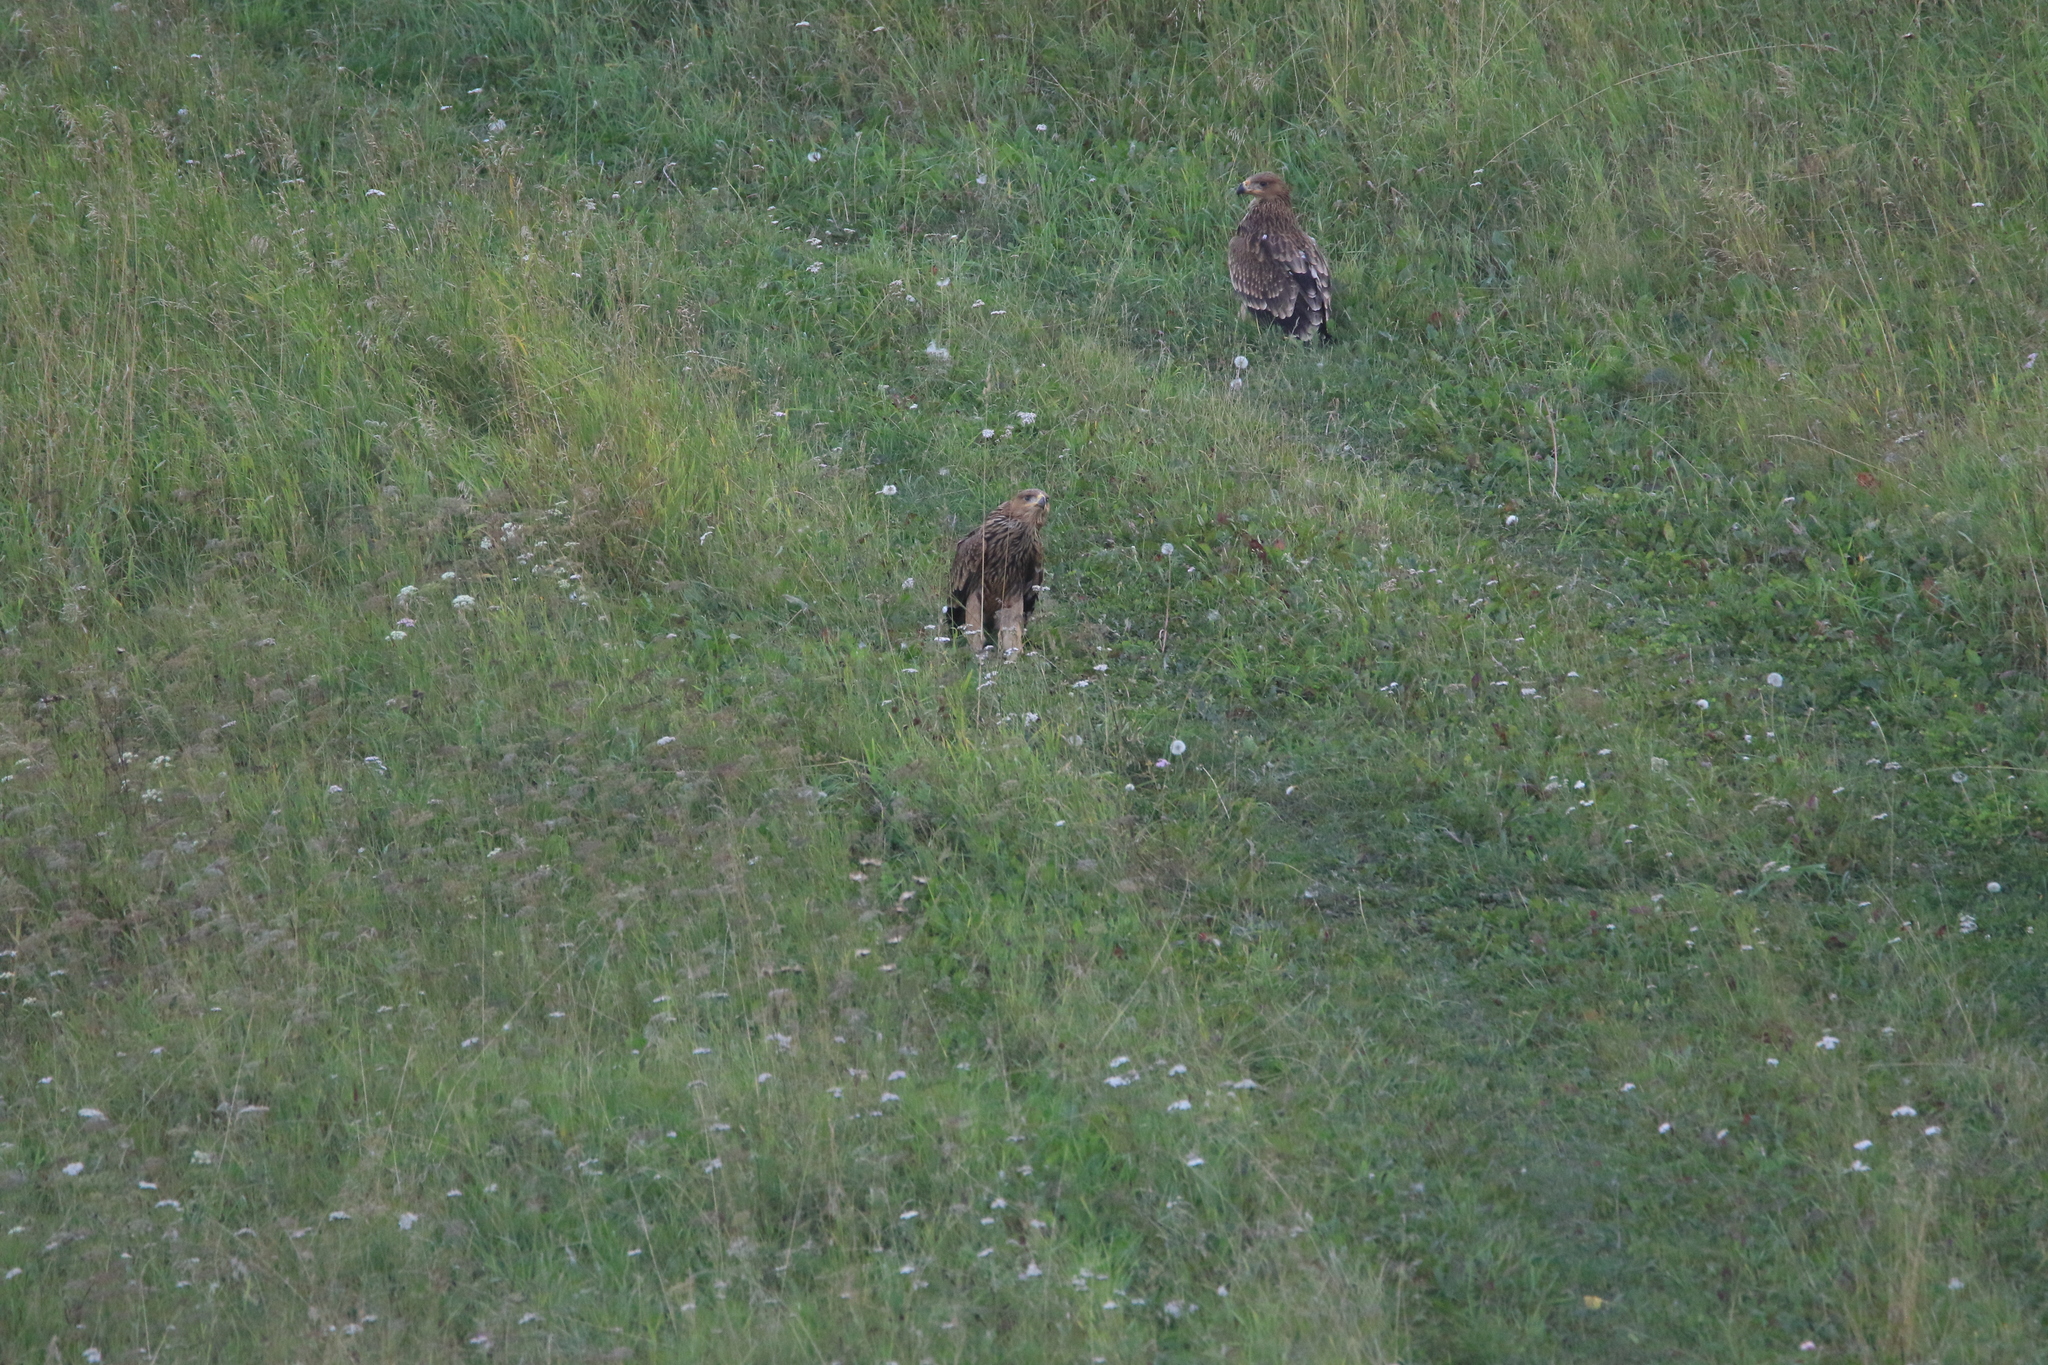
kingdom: Animalia
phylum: Chordata
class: Aves
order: Accipitriformes
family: Accipitridae
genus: Aquila
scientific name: Aquila heliaca
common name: Eastern imperial eagle
